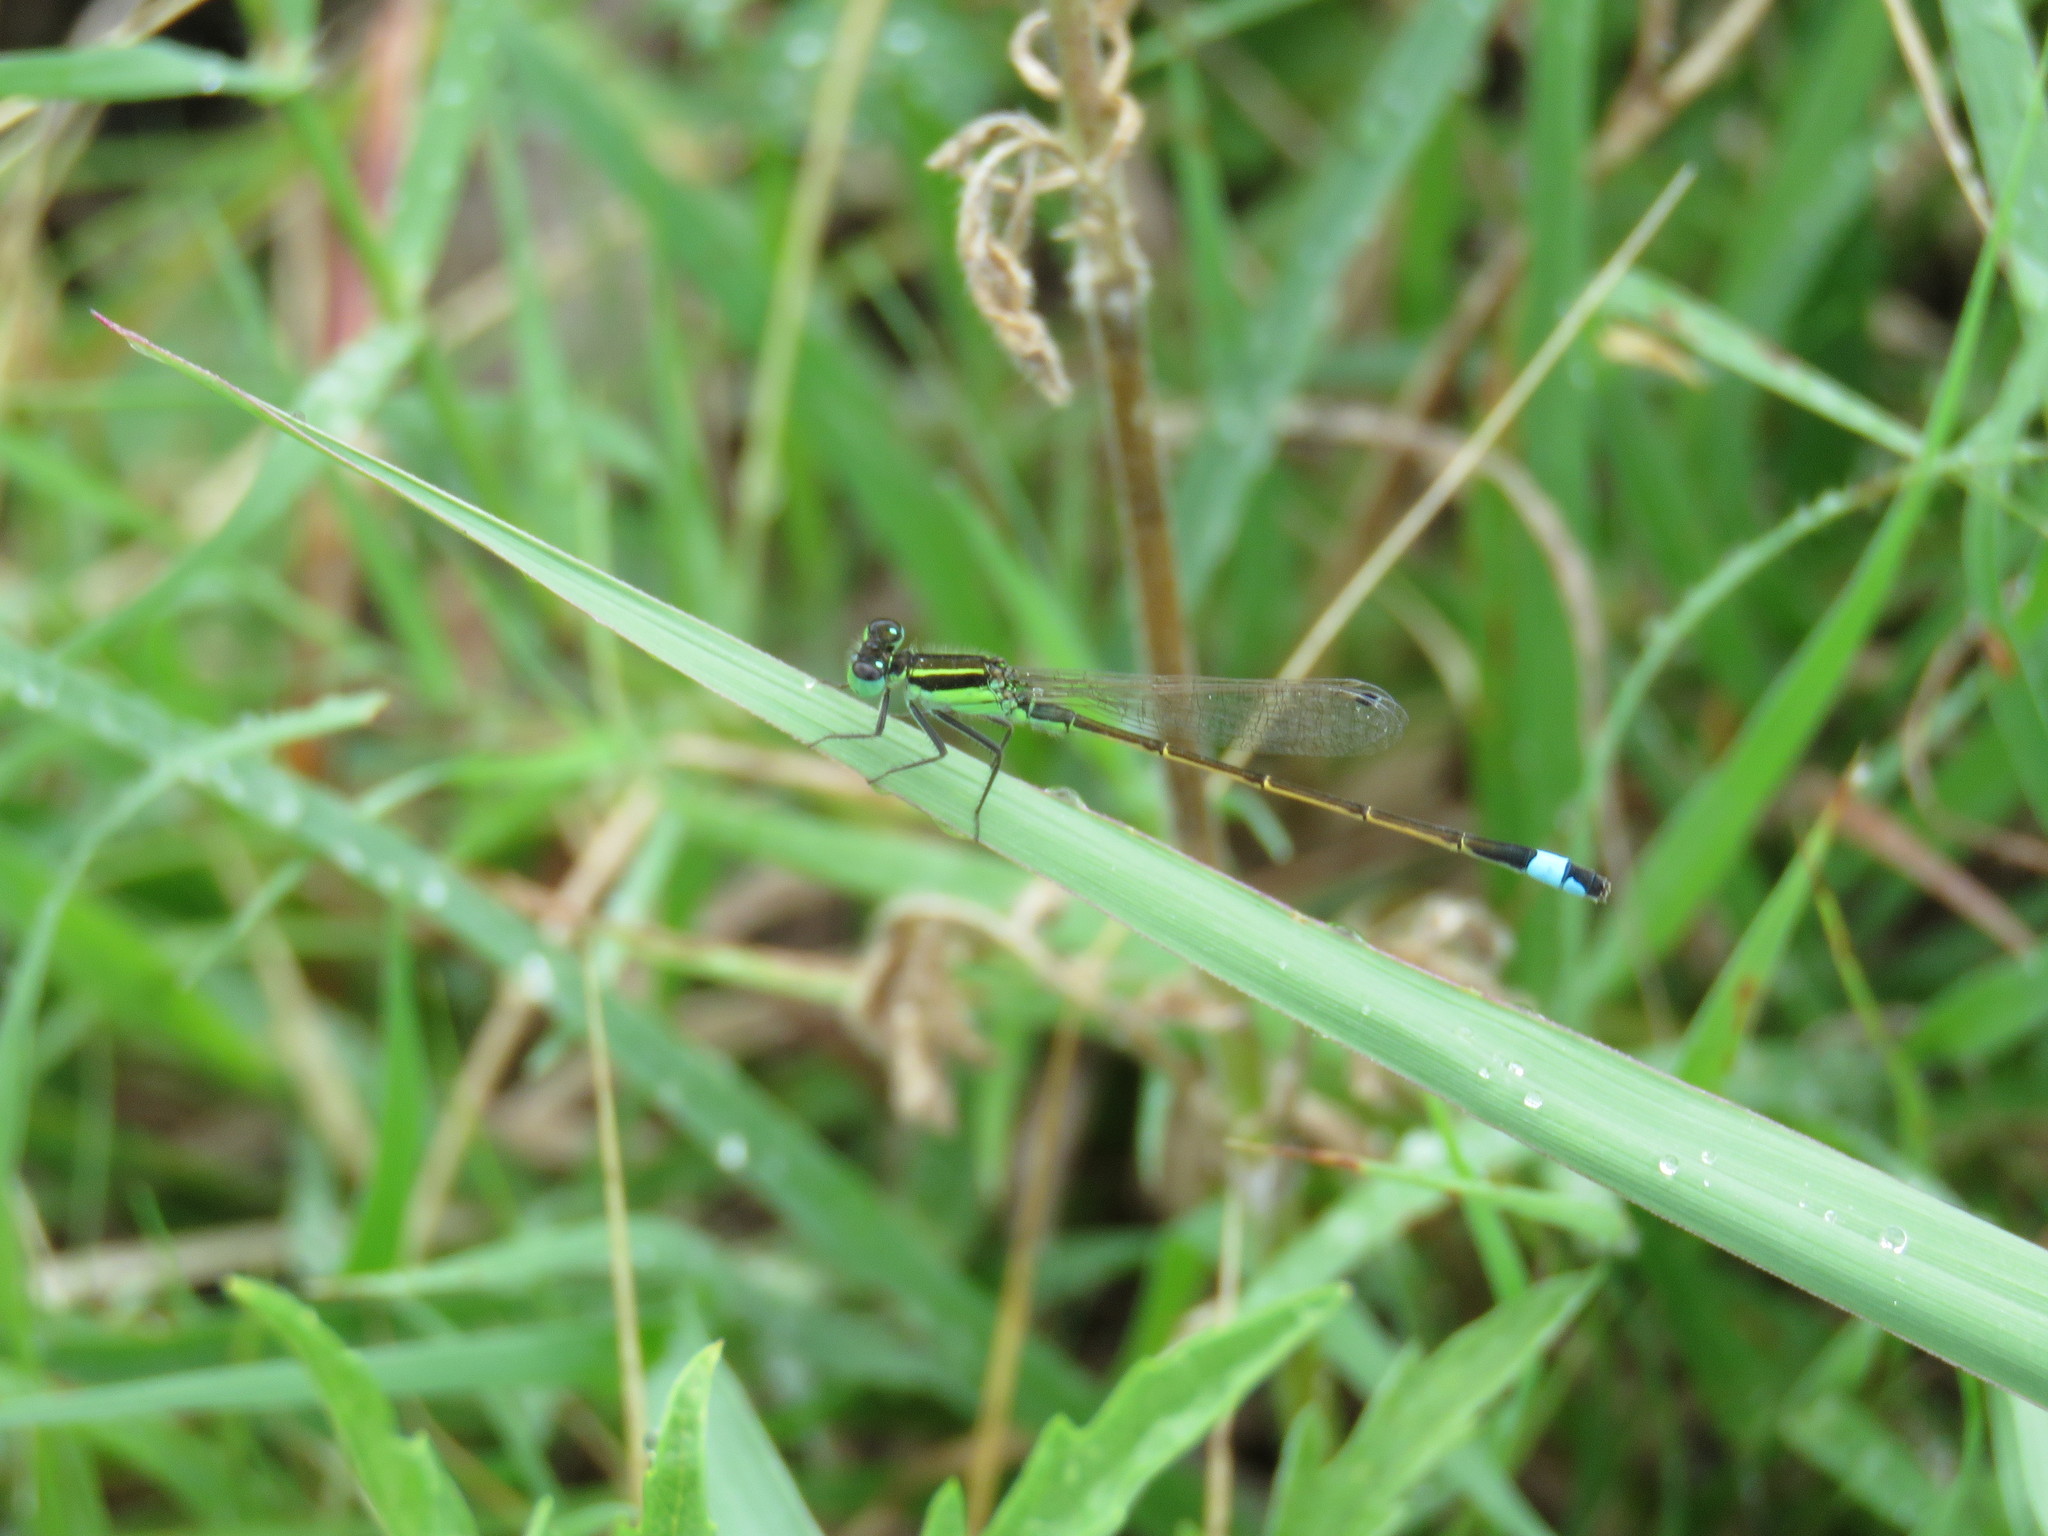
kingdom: Animalia
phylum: Arthropoda
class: Insecta
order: Odonata
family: Coenagrionidae
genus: Ischnura
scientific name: Ischnura ramburii
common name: Rambur's forktail
